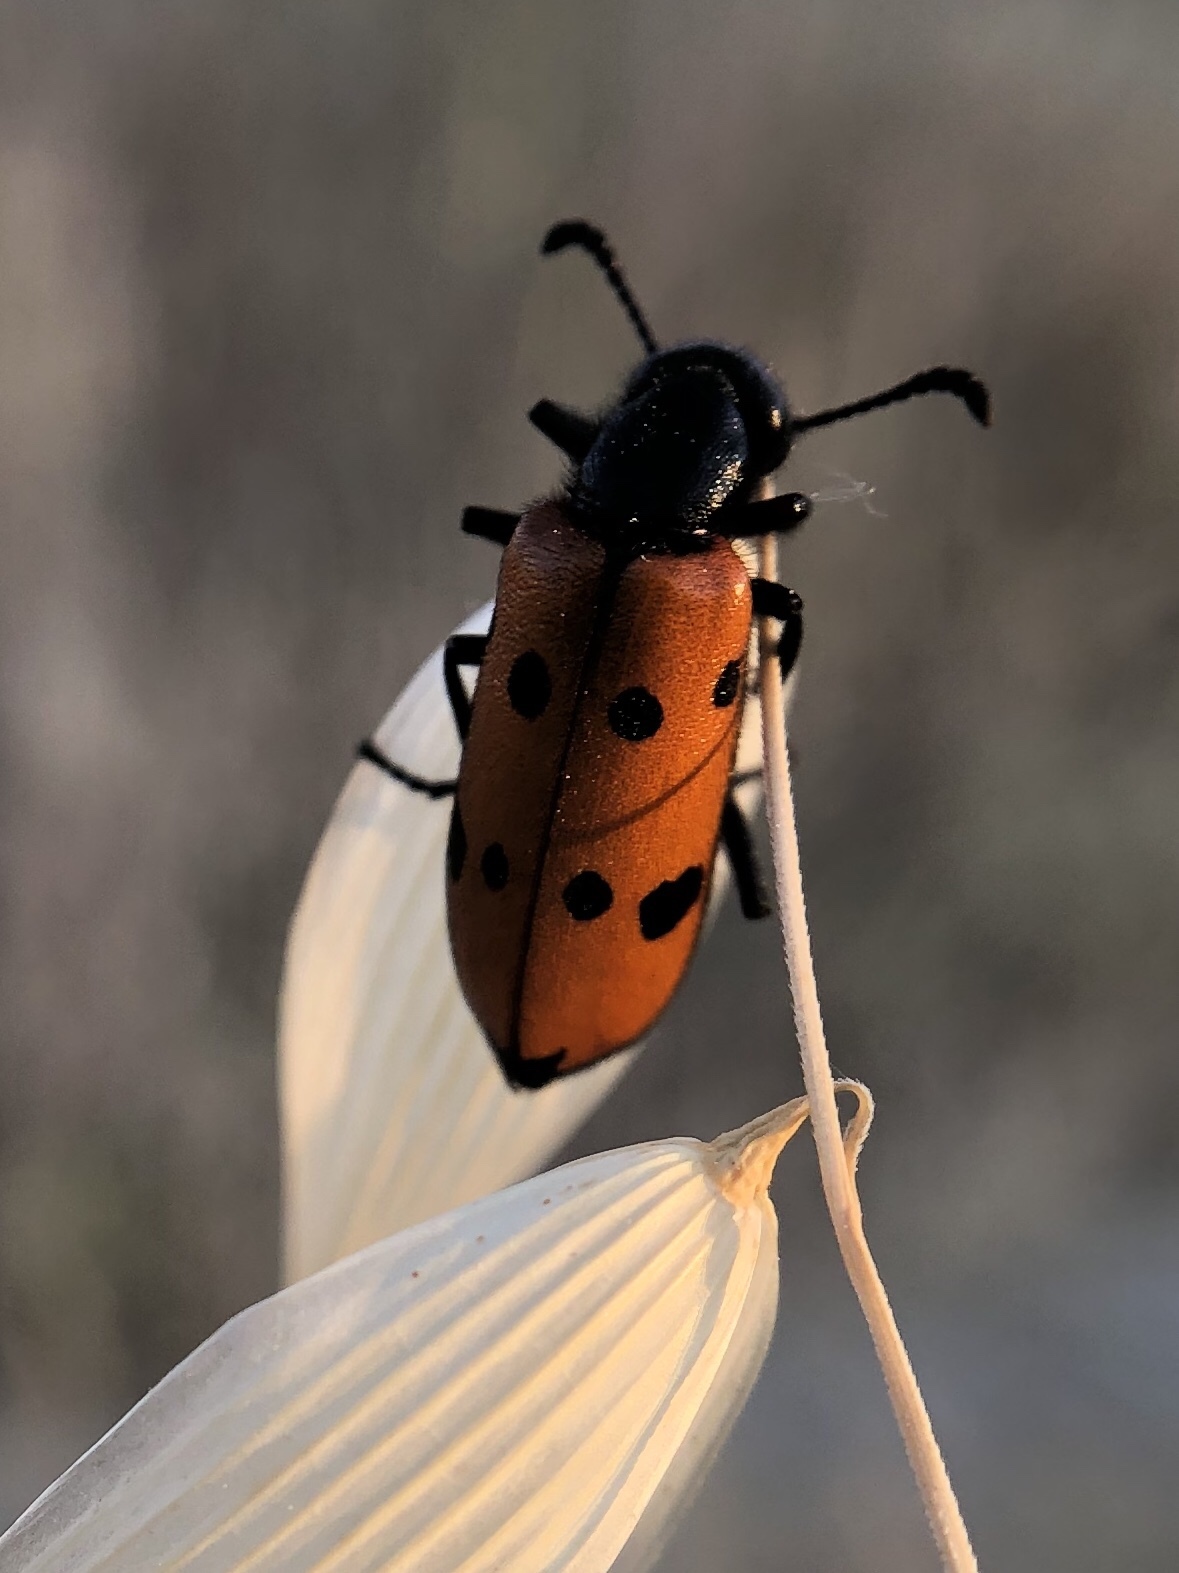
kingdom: Animalia
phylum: Arthropoda
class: Insecta
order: Coleoptera
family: Meloidae
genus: Mylabris
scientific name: Mylabris quadripunctata
